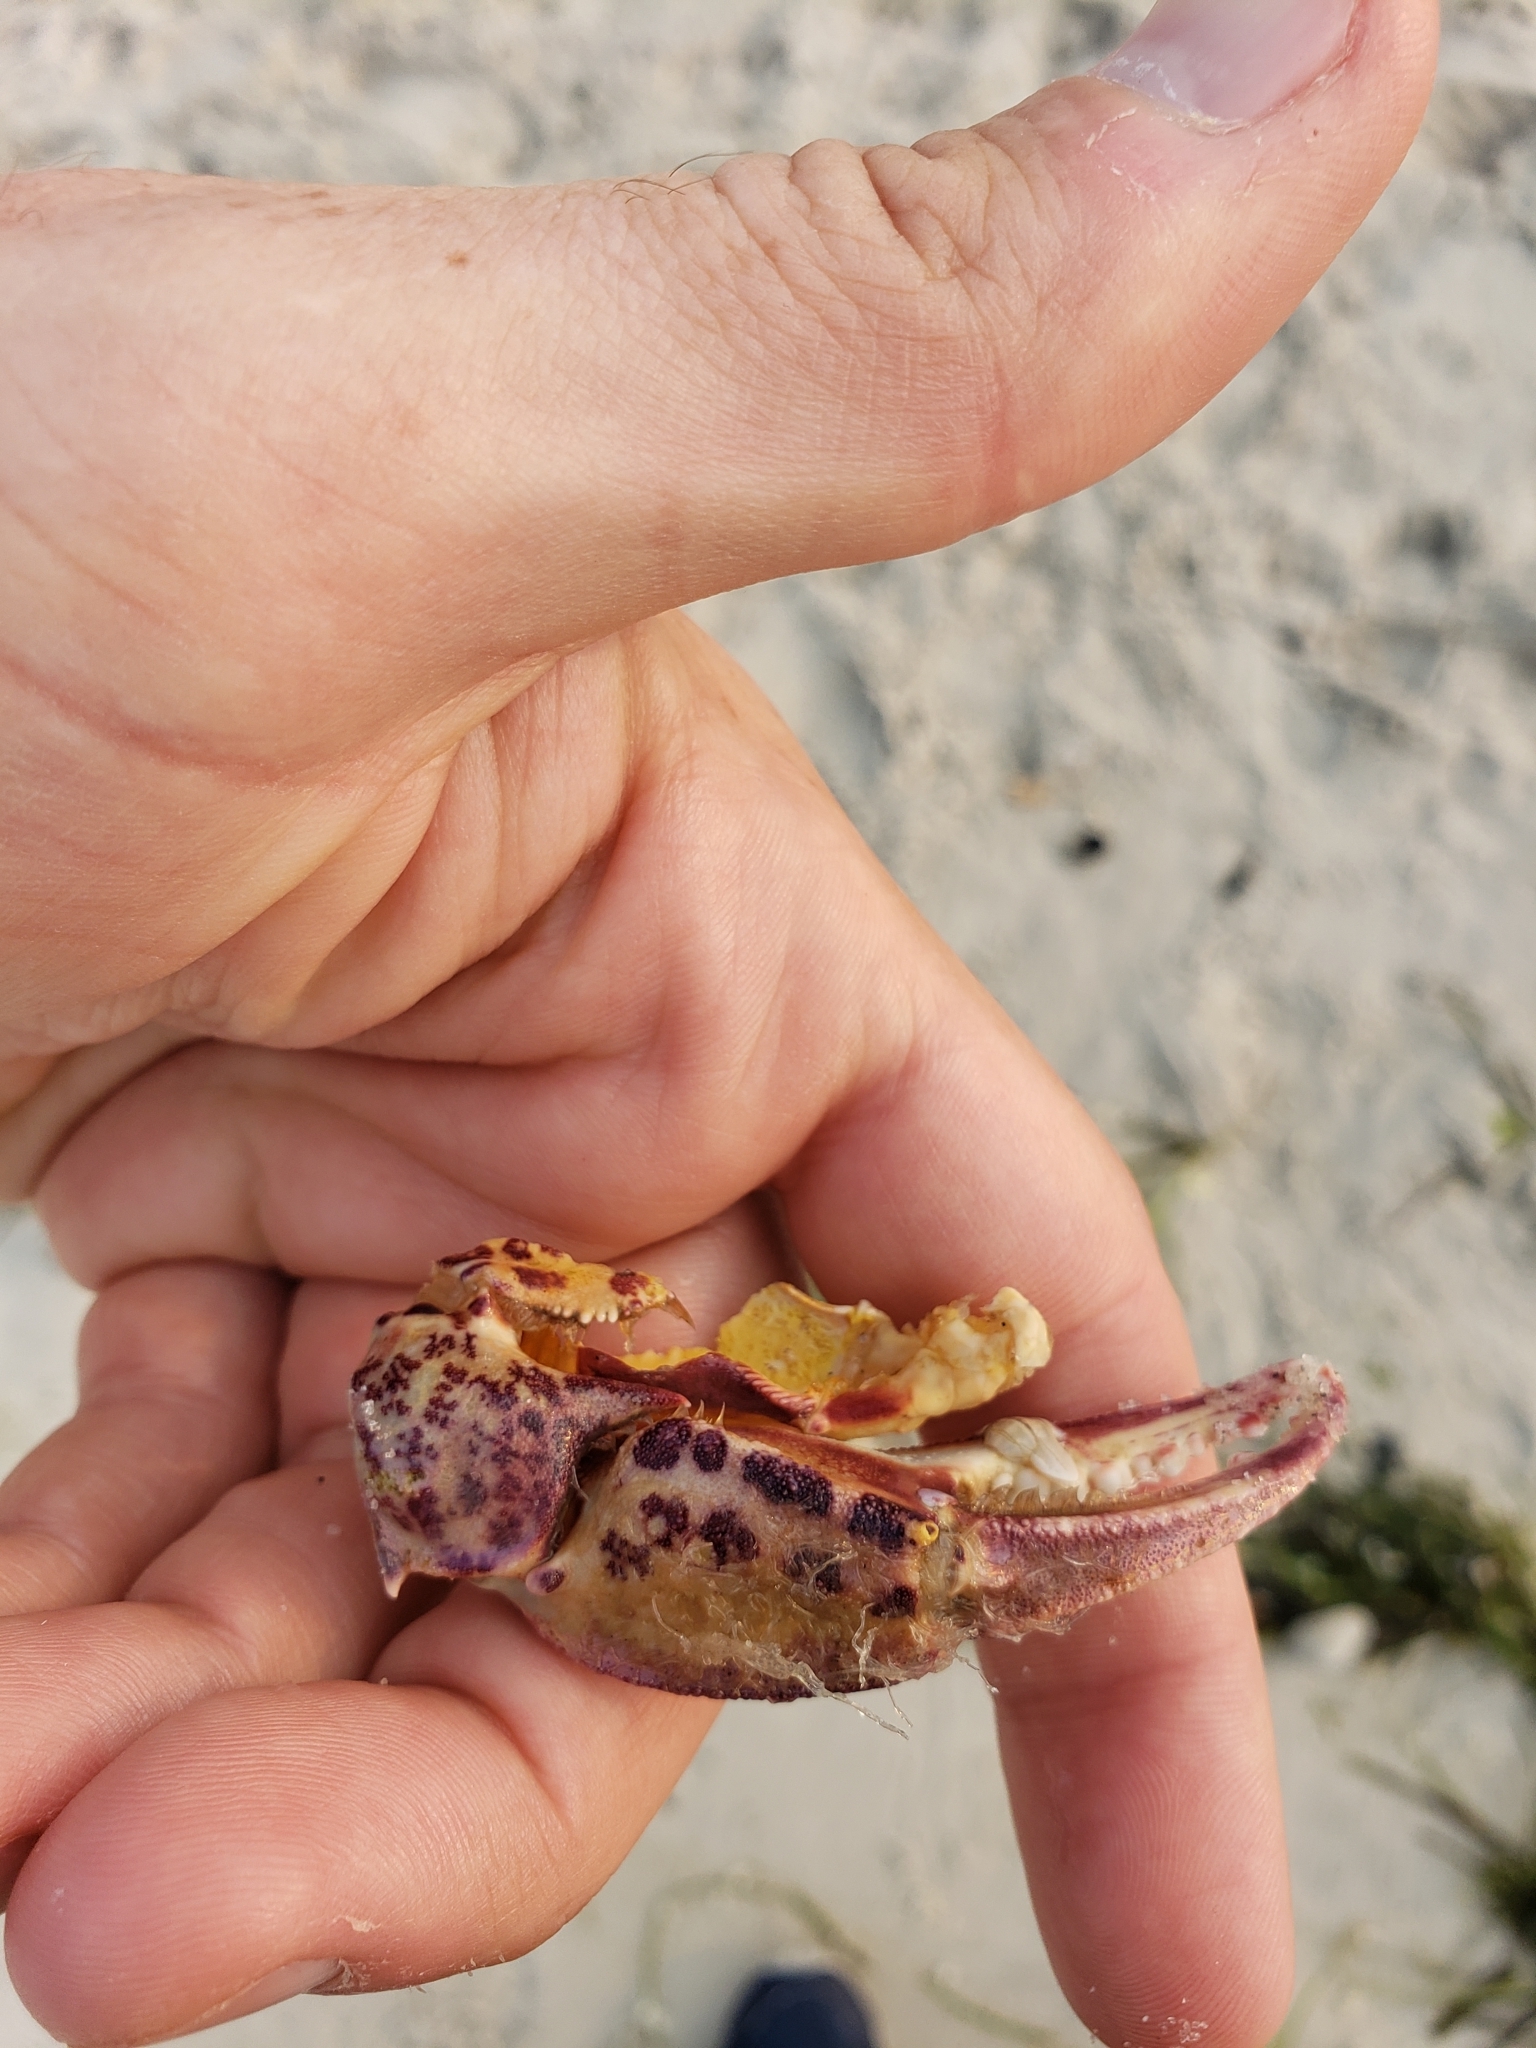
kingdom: Animalia
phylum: Arthropoda
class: Malacostraca
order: Decapoda
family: Ovalipidae
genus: Ovalipes
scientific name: Ovalipes ocellatus
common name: Lady crab
